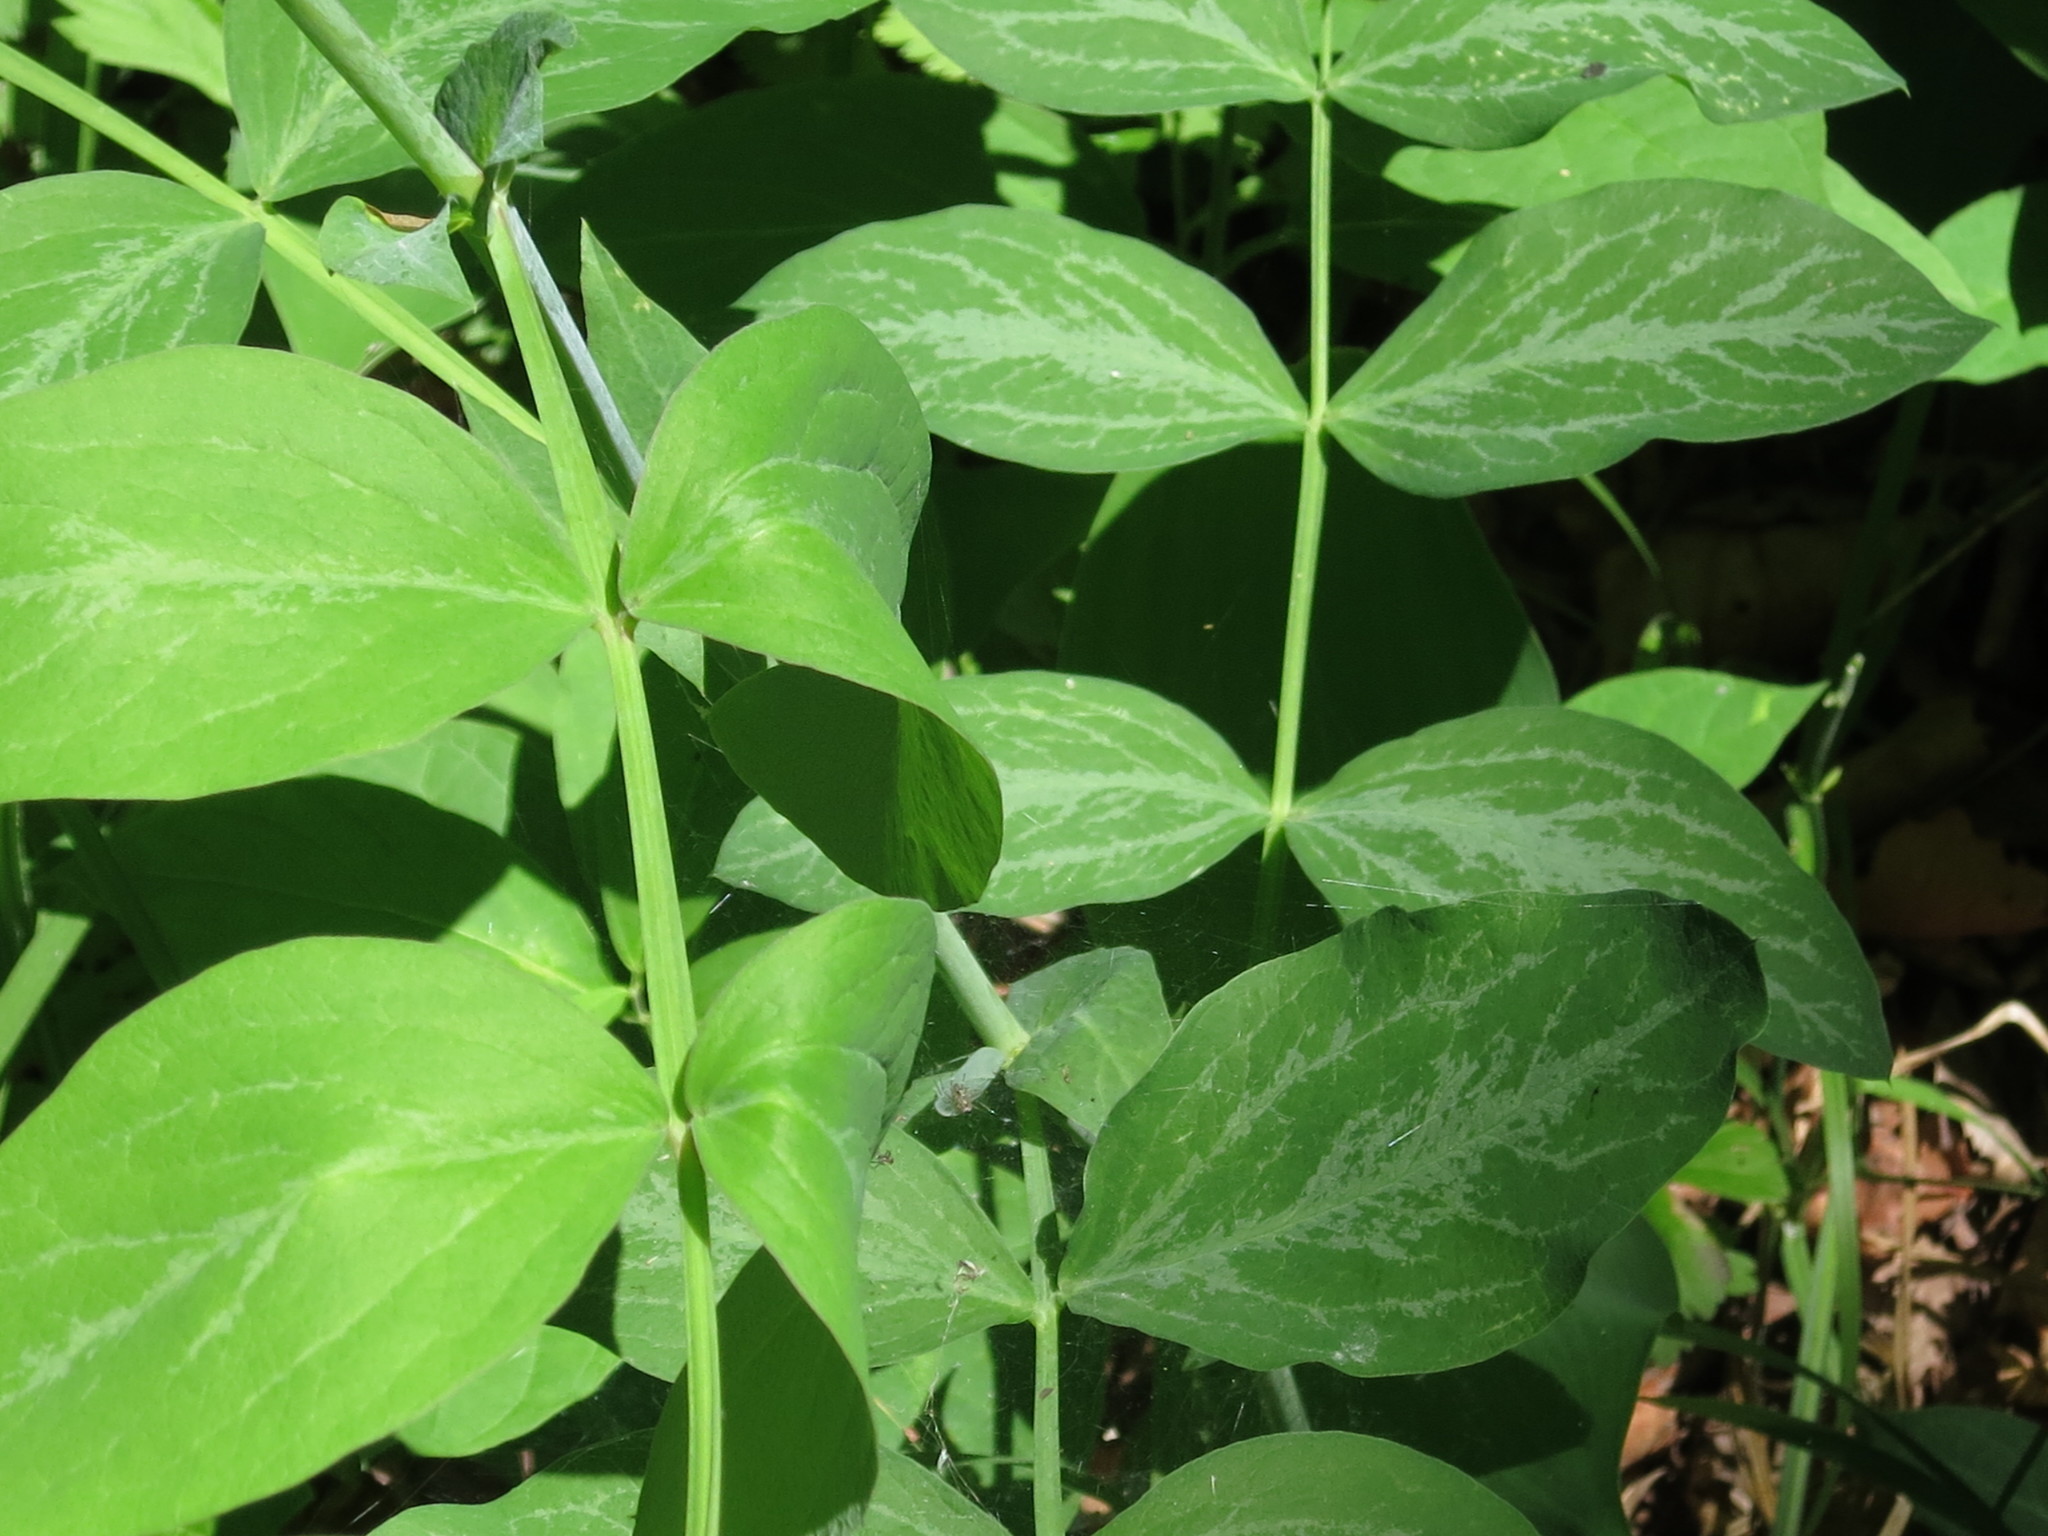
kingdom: Plantae
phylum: Tracheophyta
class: Magnoliopsida
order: Fabales
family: Fabaceae
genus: Lathyrus
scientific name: Lathyrus davidii
